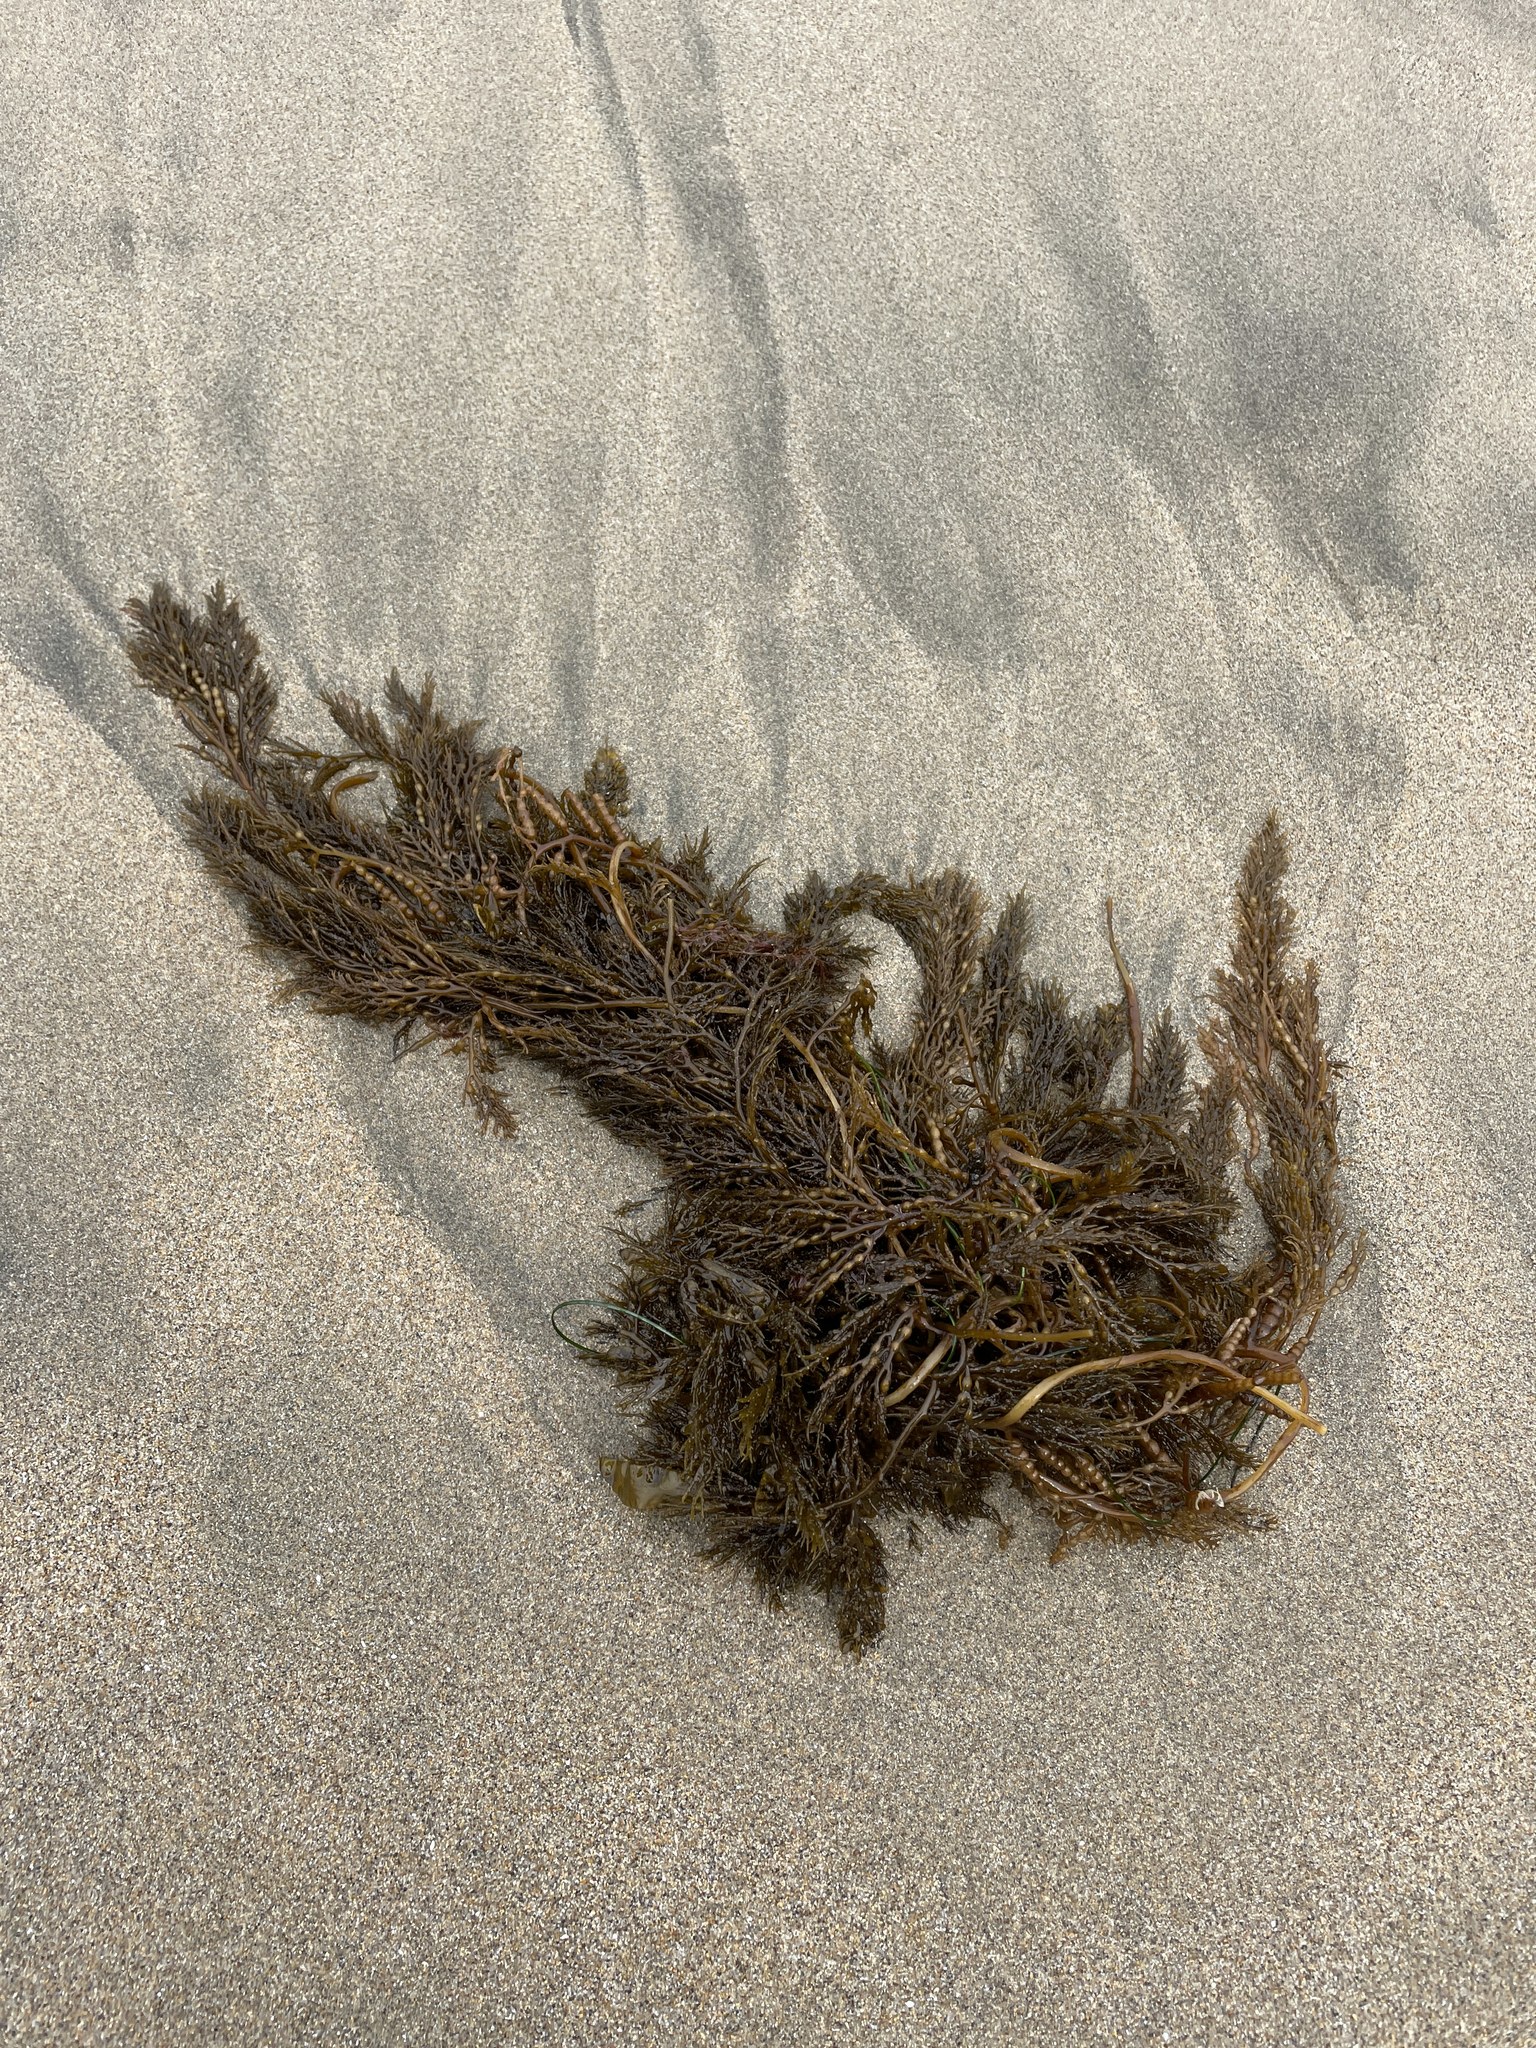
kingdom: Chromista
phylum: Ochrophyta
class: Phaeophyceae
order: Fucales
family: Sargassaceae
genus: Stephanocystis
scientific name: Stephanocystis
